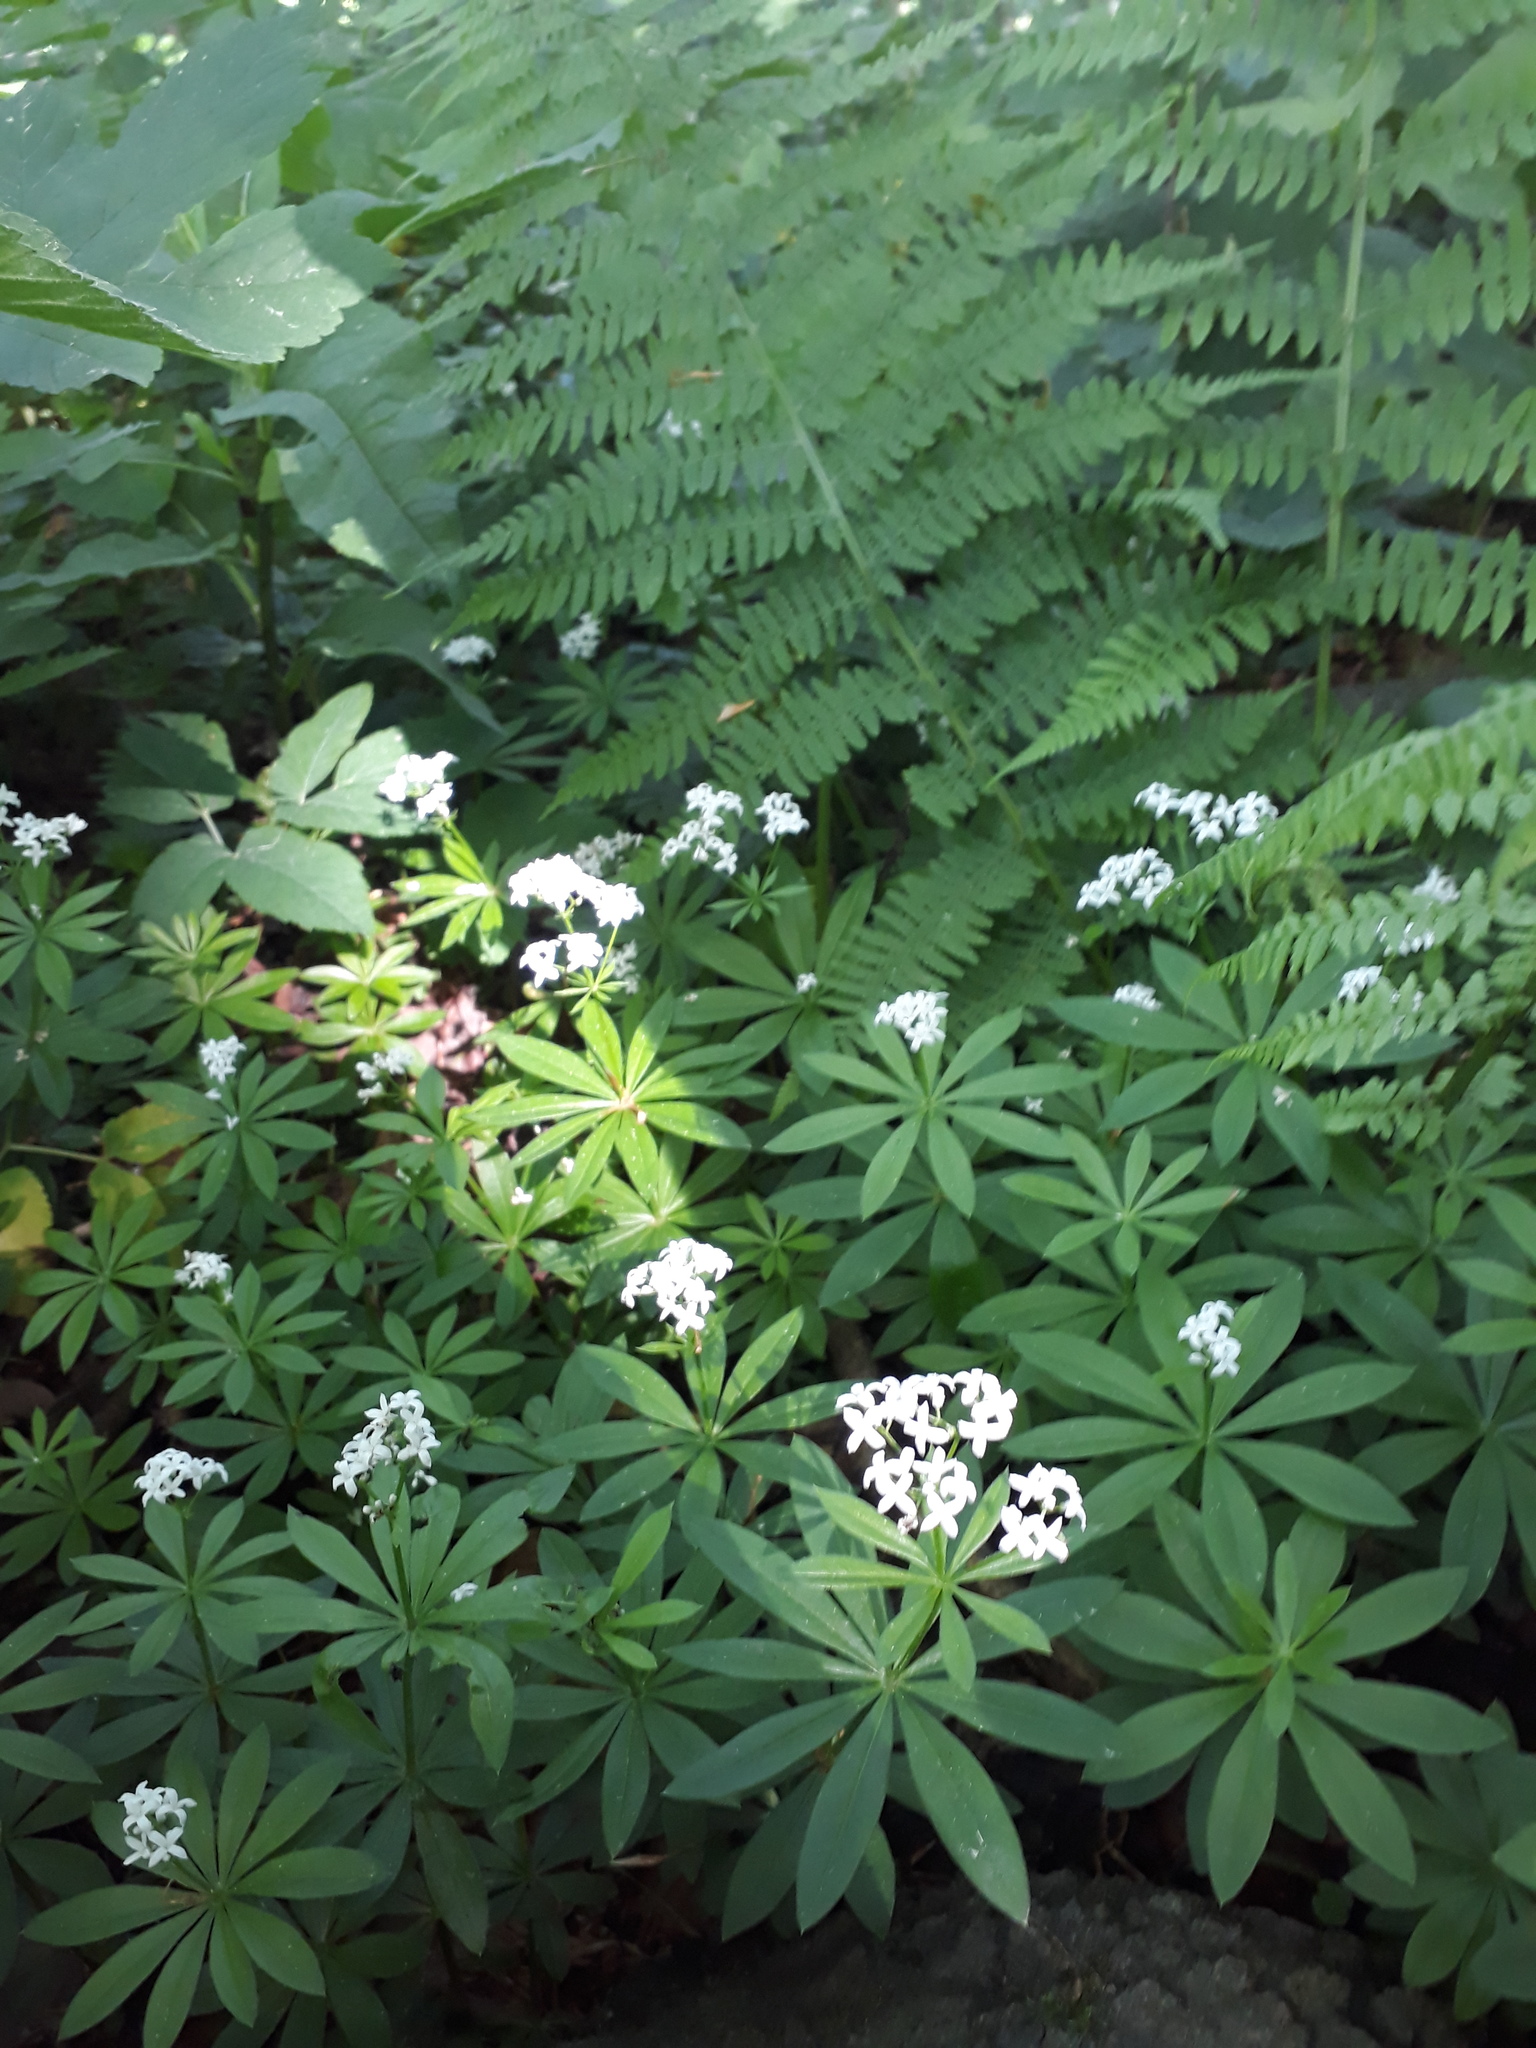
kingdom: Plantae
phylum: Tracheophyta
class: Magnoliopsida
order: Gentianales
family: Rubiaceae
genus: Galium
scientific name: Galium odoratum
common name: Sweet woodruff
